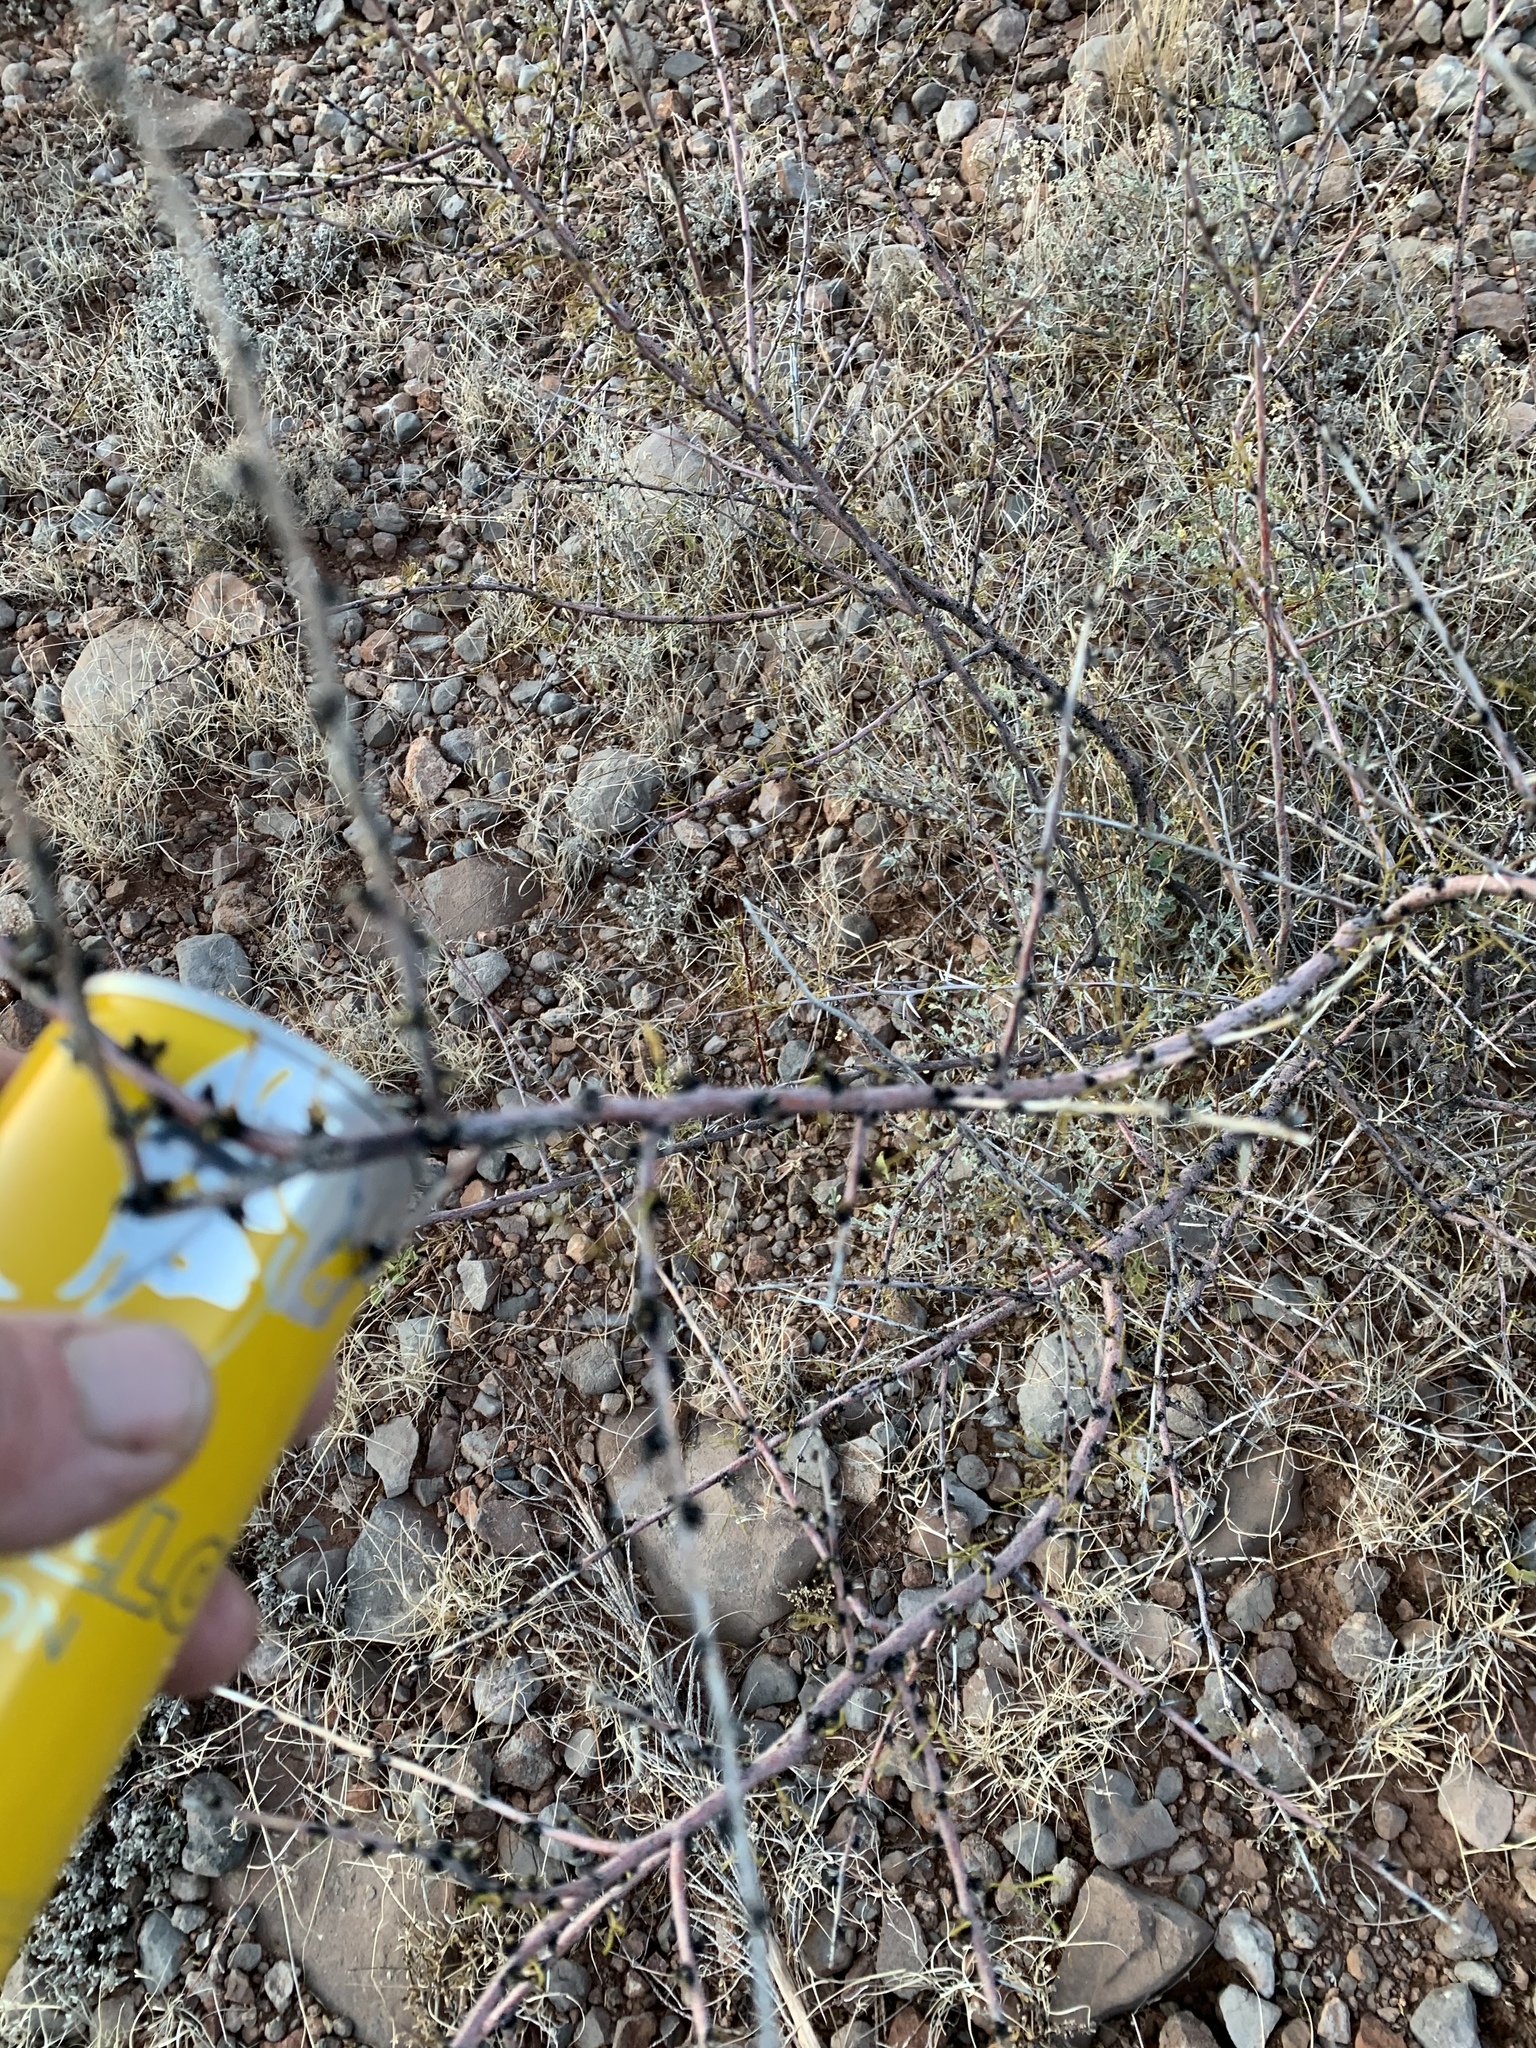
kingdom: Plantae
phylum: Tracheophyta
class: Magnoliopsida
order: Fabales
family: Fabaceae
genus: Vachellia
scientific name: Vachellia constricta
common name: Mescat acacia
